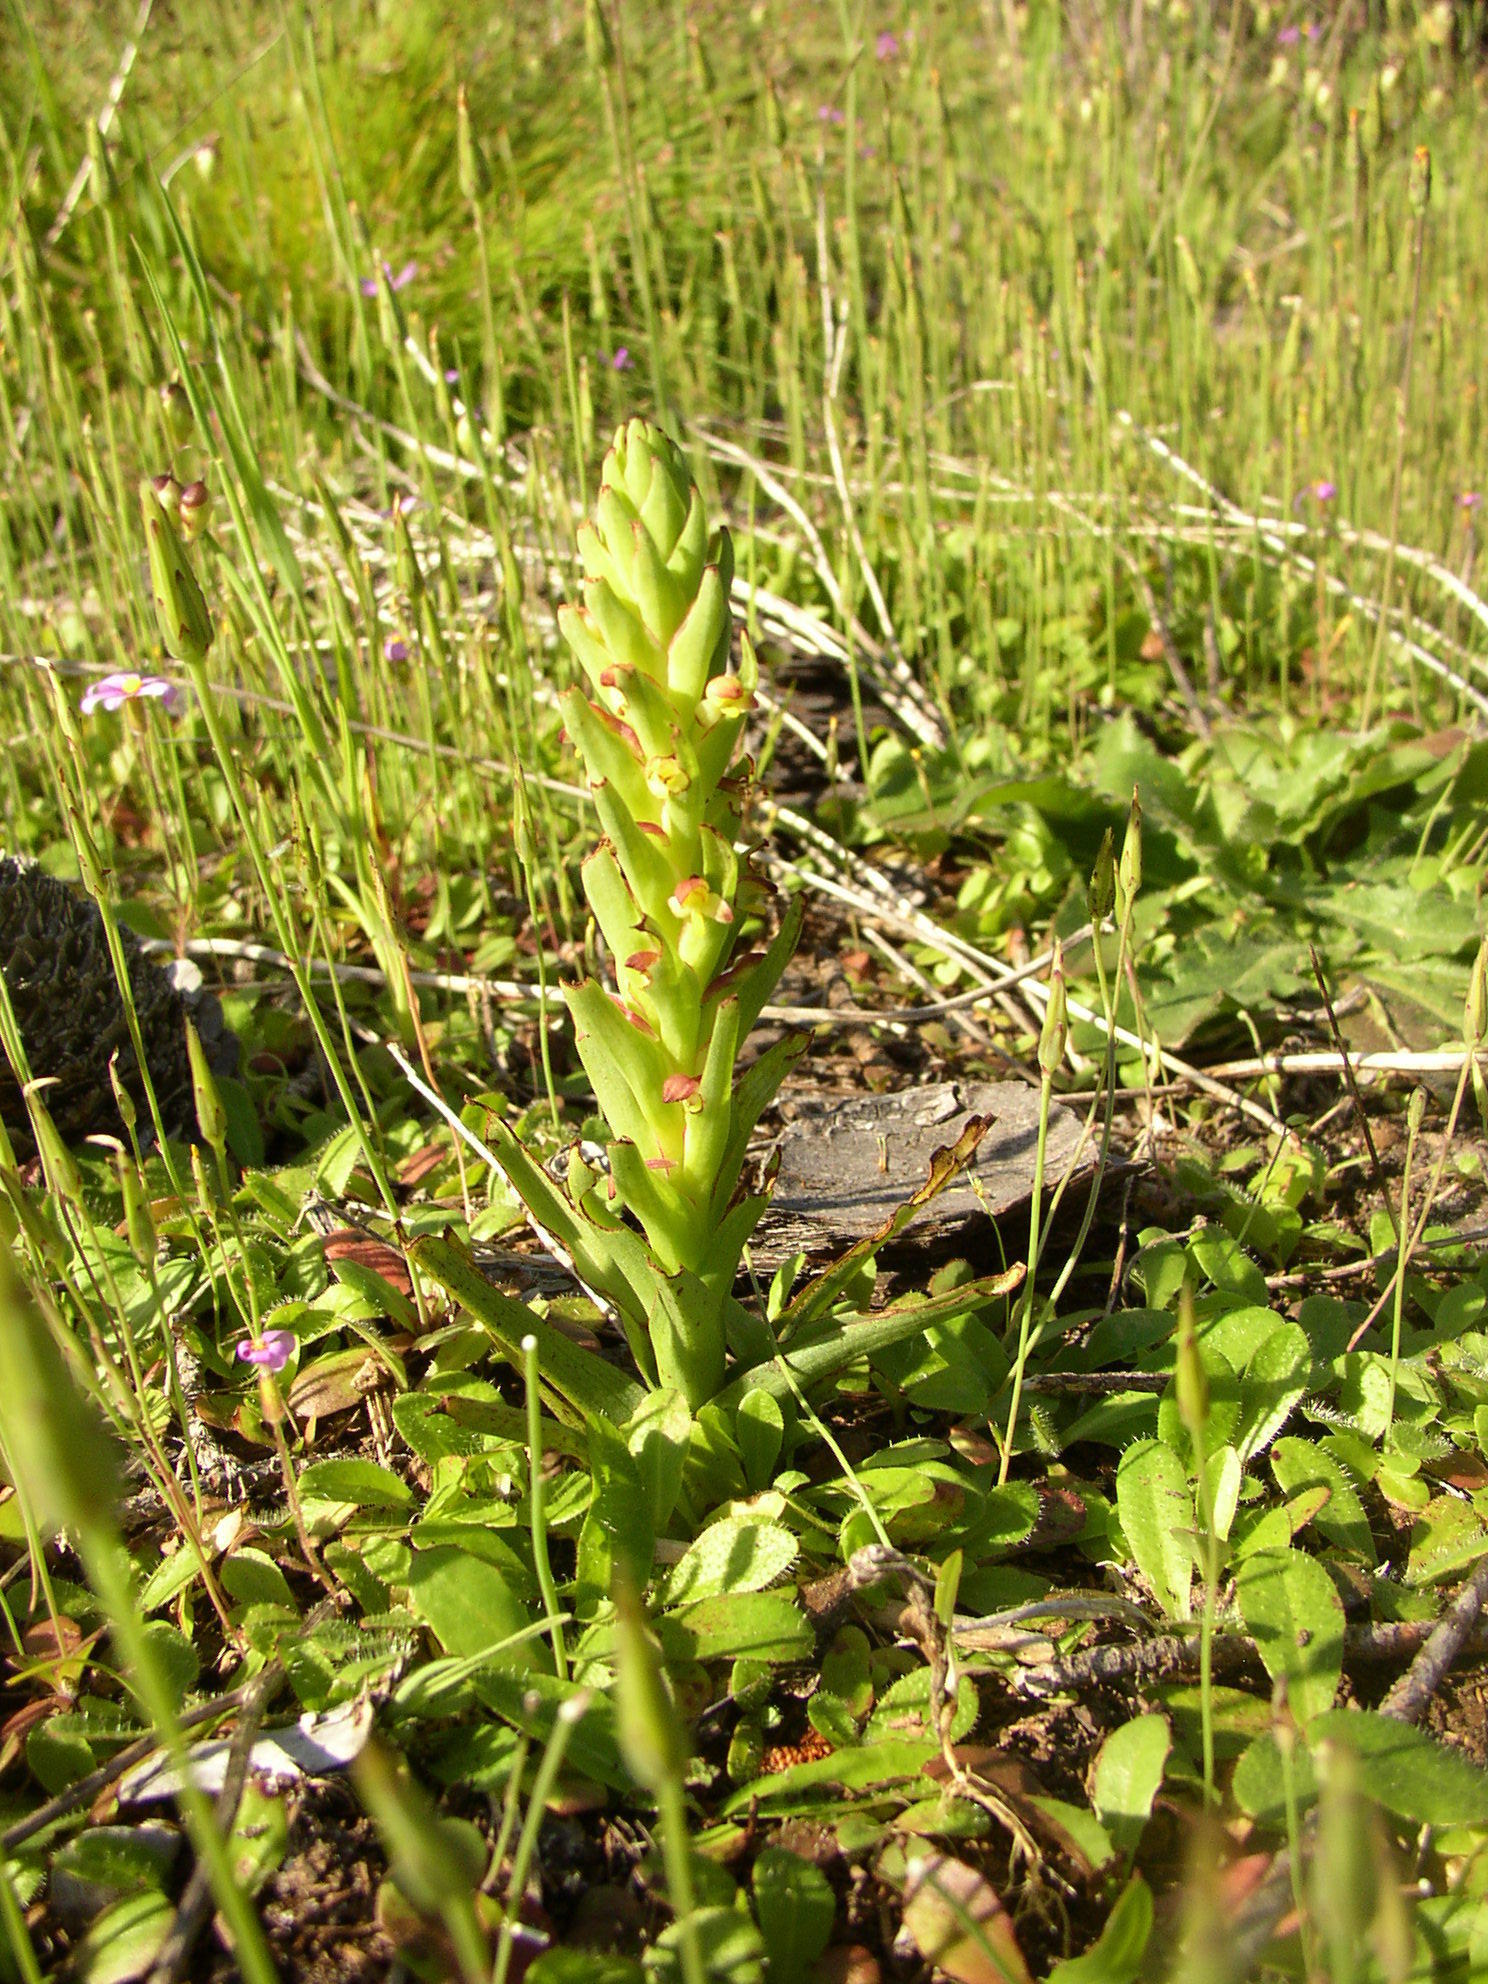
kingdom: Plantae
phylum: Tracheophyta
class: Liliopsida
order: Asparagales
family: Orchidaceae
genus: Disa
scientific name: Disa bracteata
